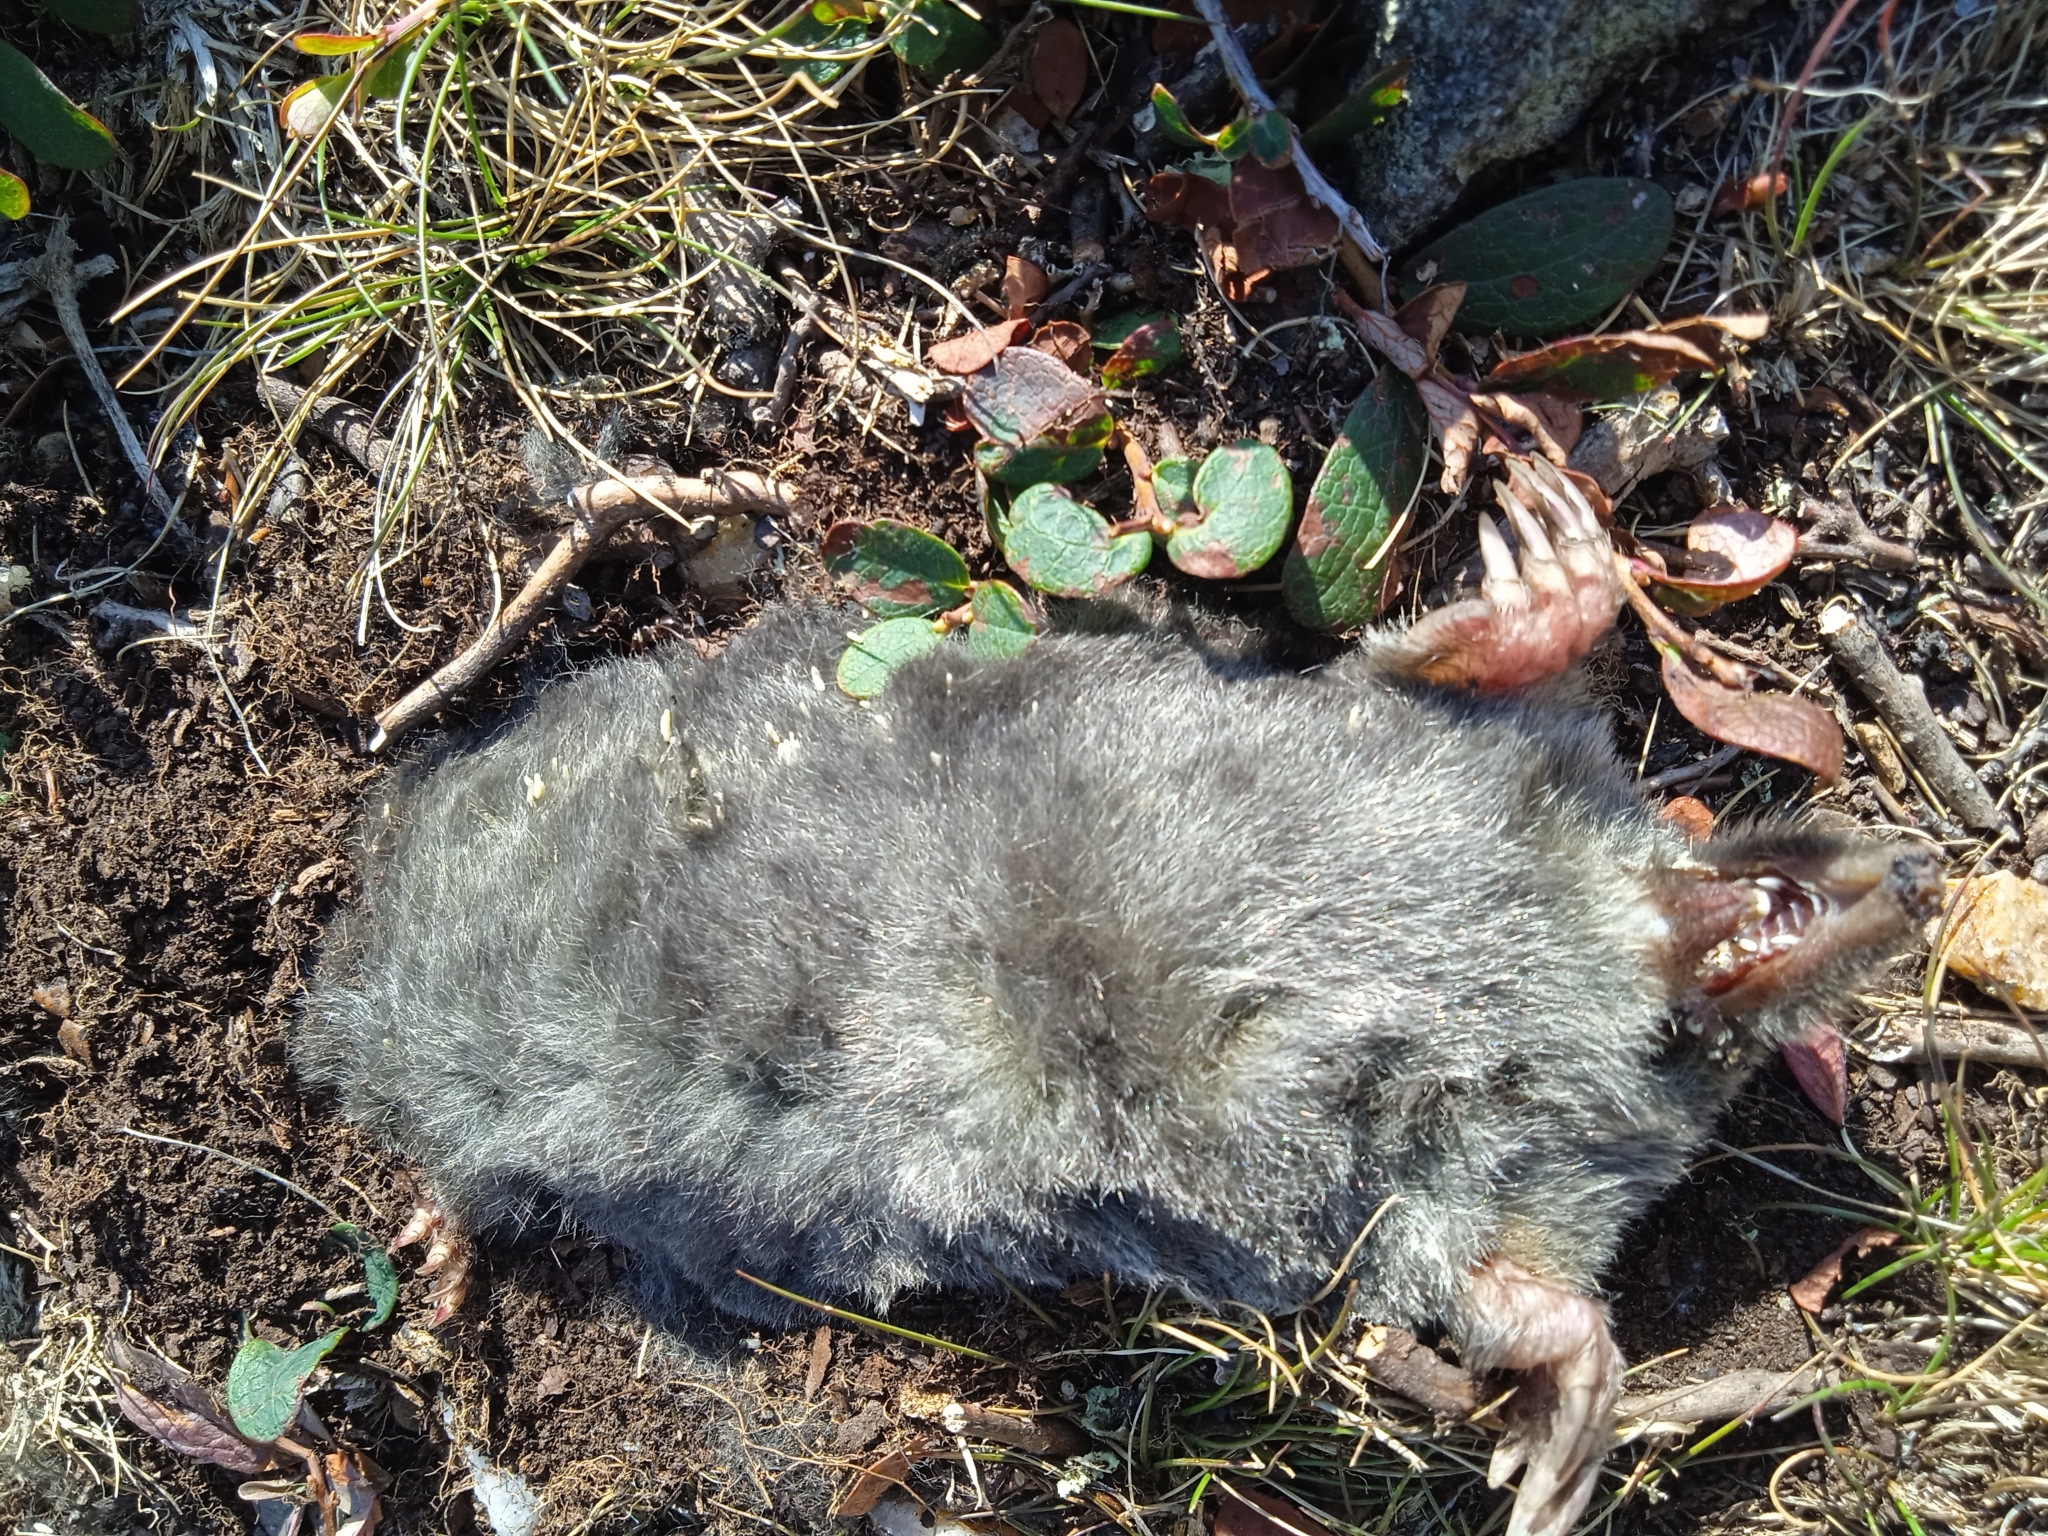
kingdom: Animalia
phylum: Chordata
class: Mammalia
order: Soricomorpha
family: Talpidae
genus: Talpa
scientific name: Talpa europaea
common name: European mole
